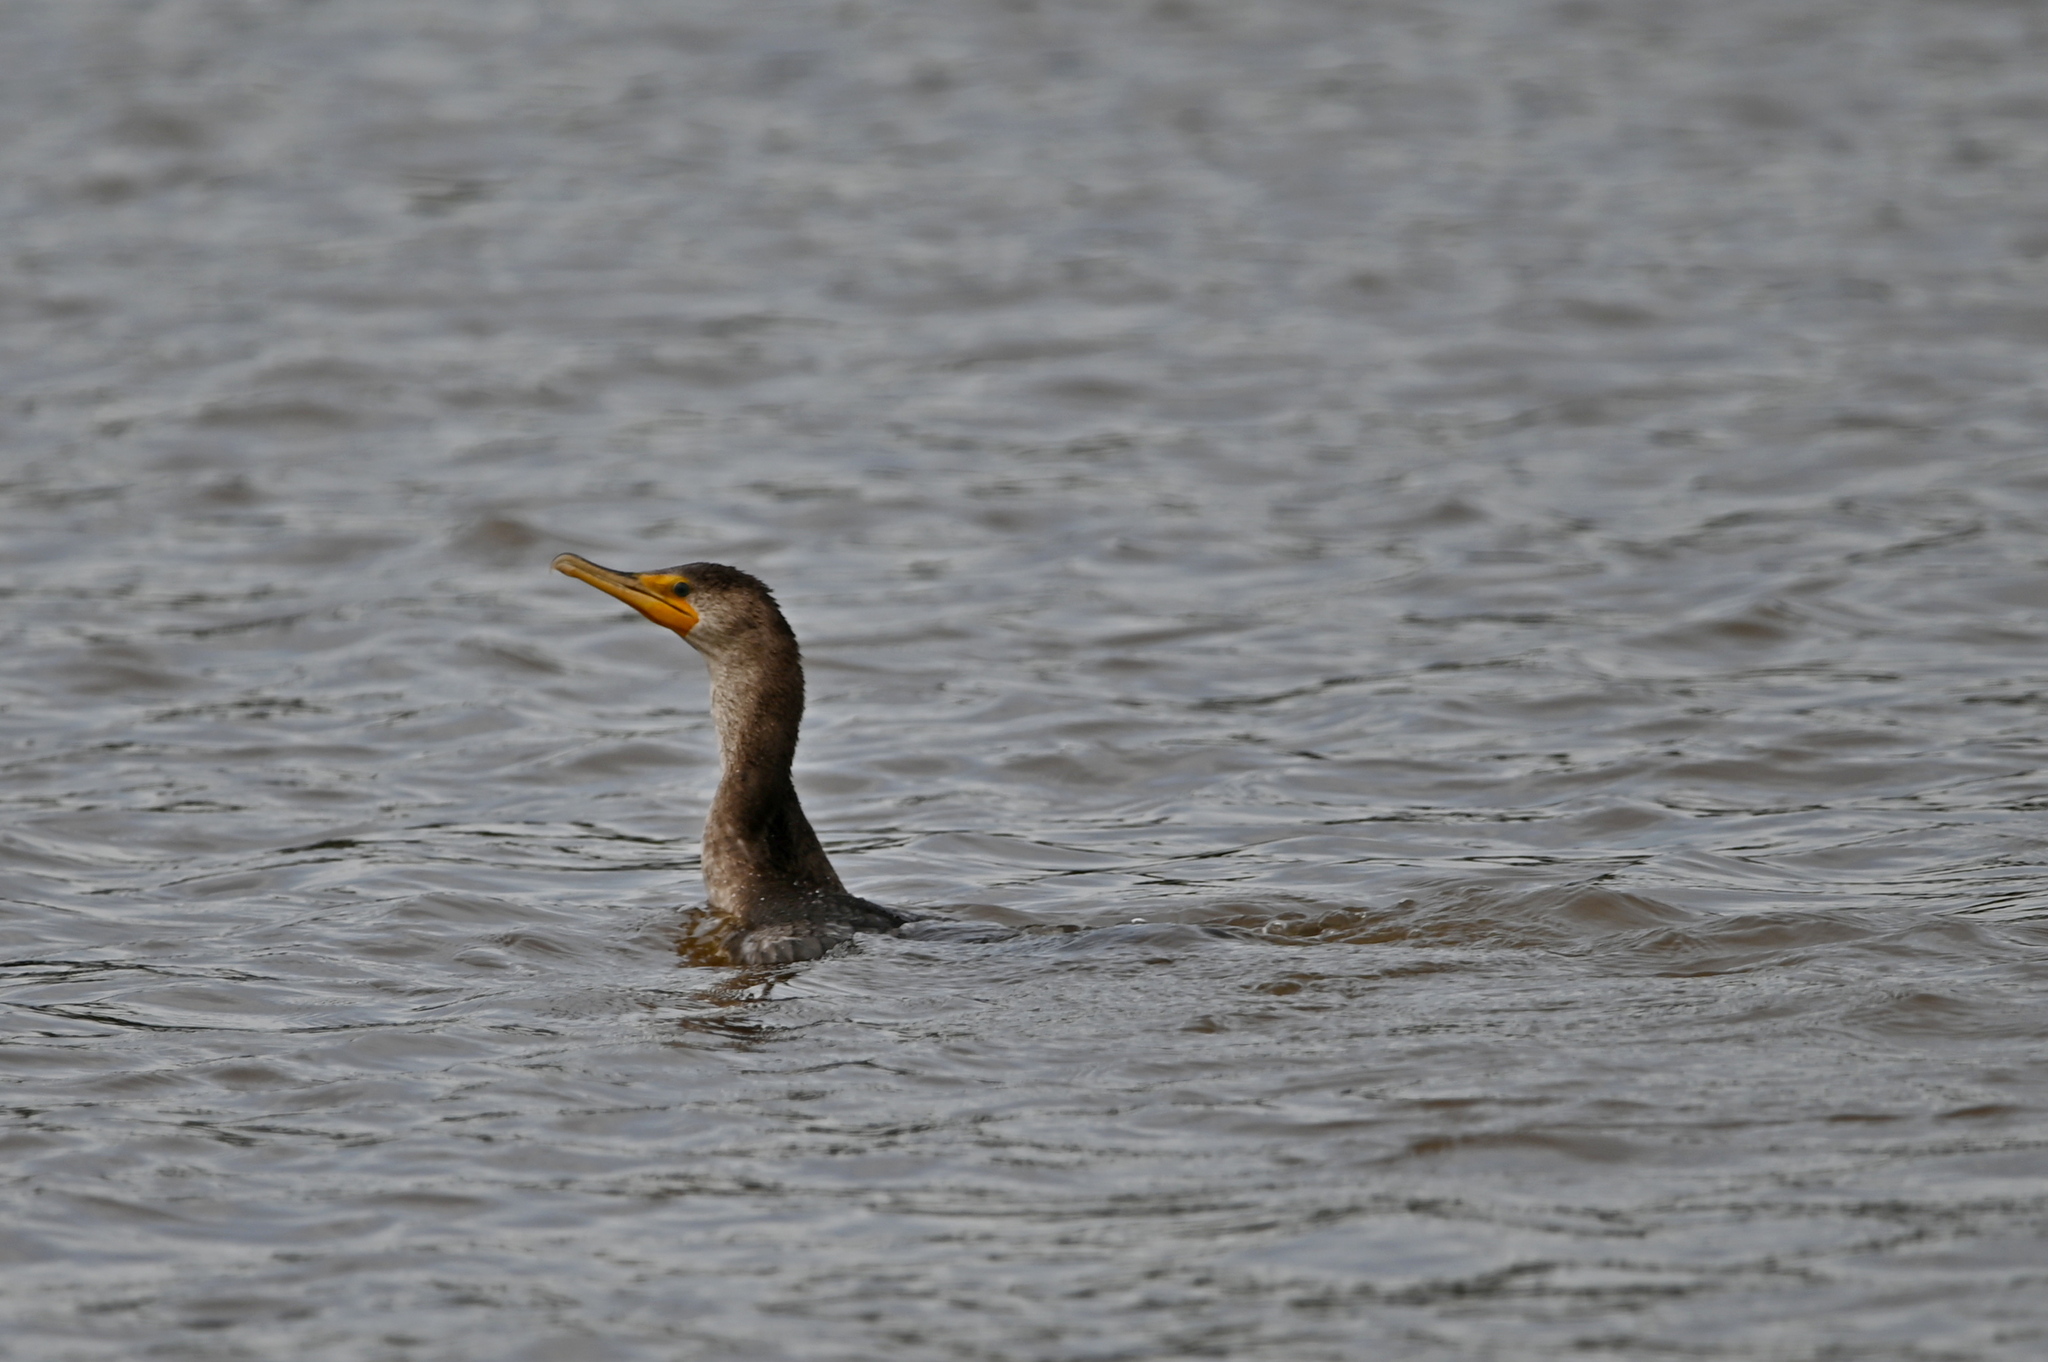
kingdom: Animalia
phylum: Chordata
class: Aves
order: Suliformes
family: Phalacrocoracidae
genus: Phalacrocorax
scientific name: Phalacrocorax auritus
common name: Double-crested cormorant
